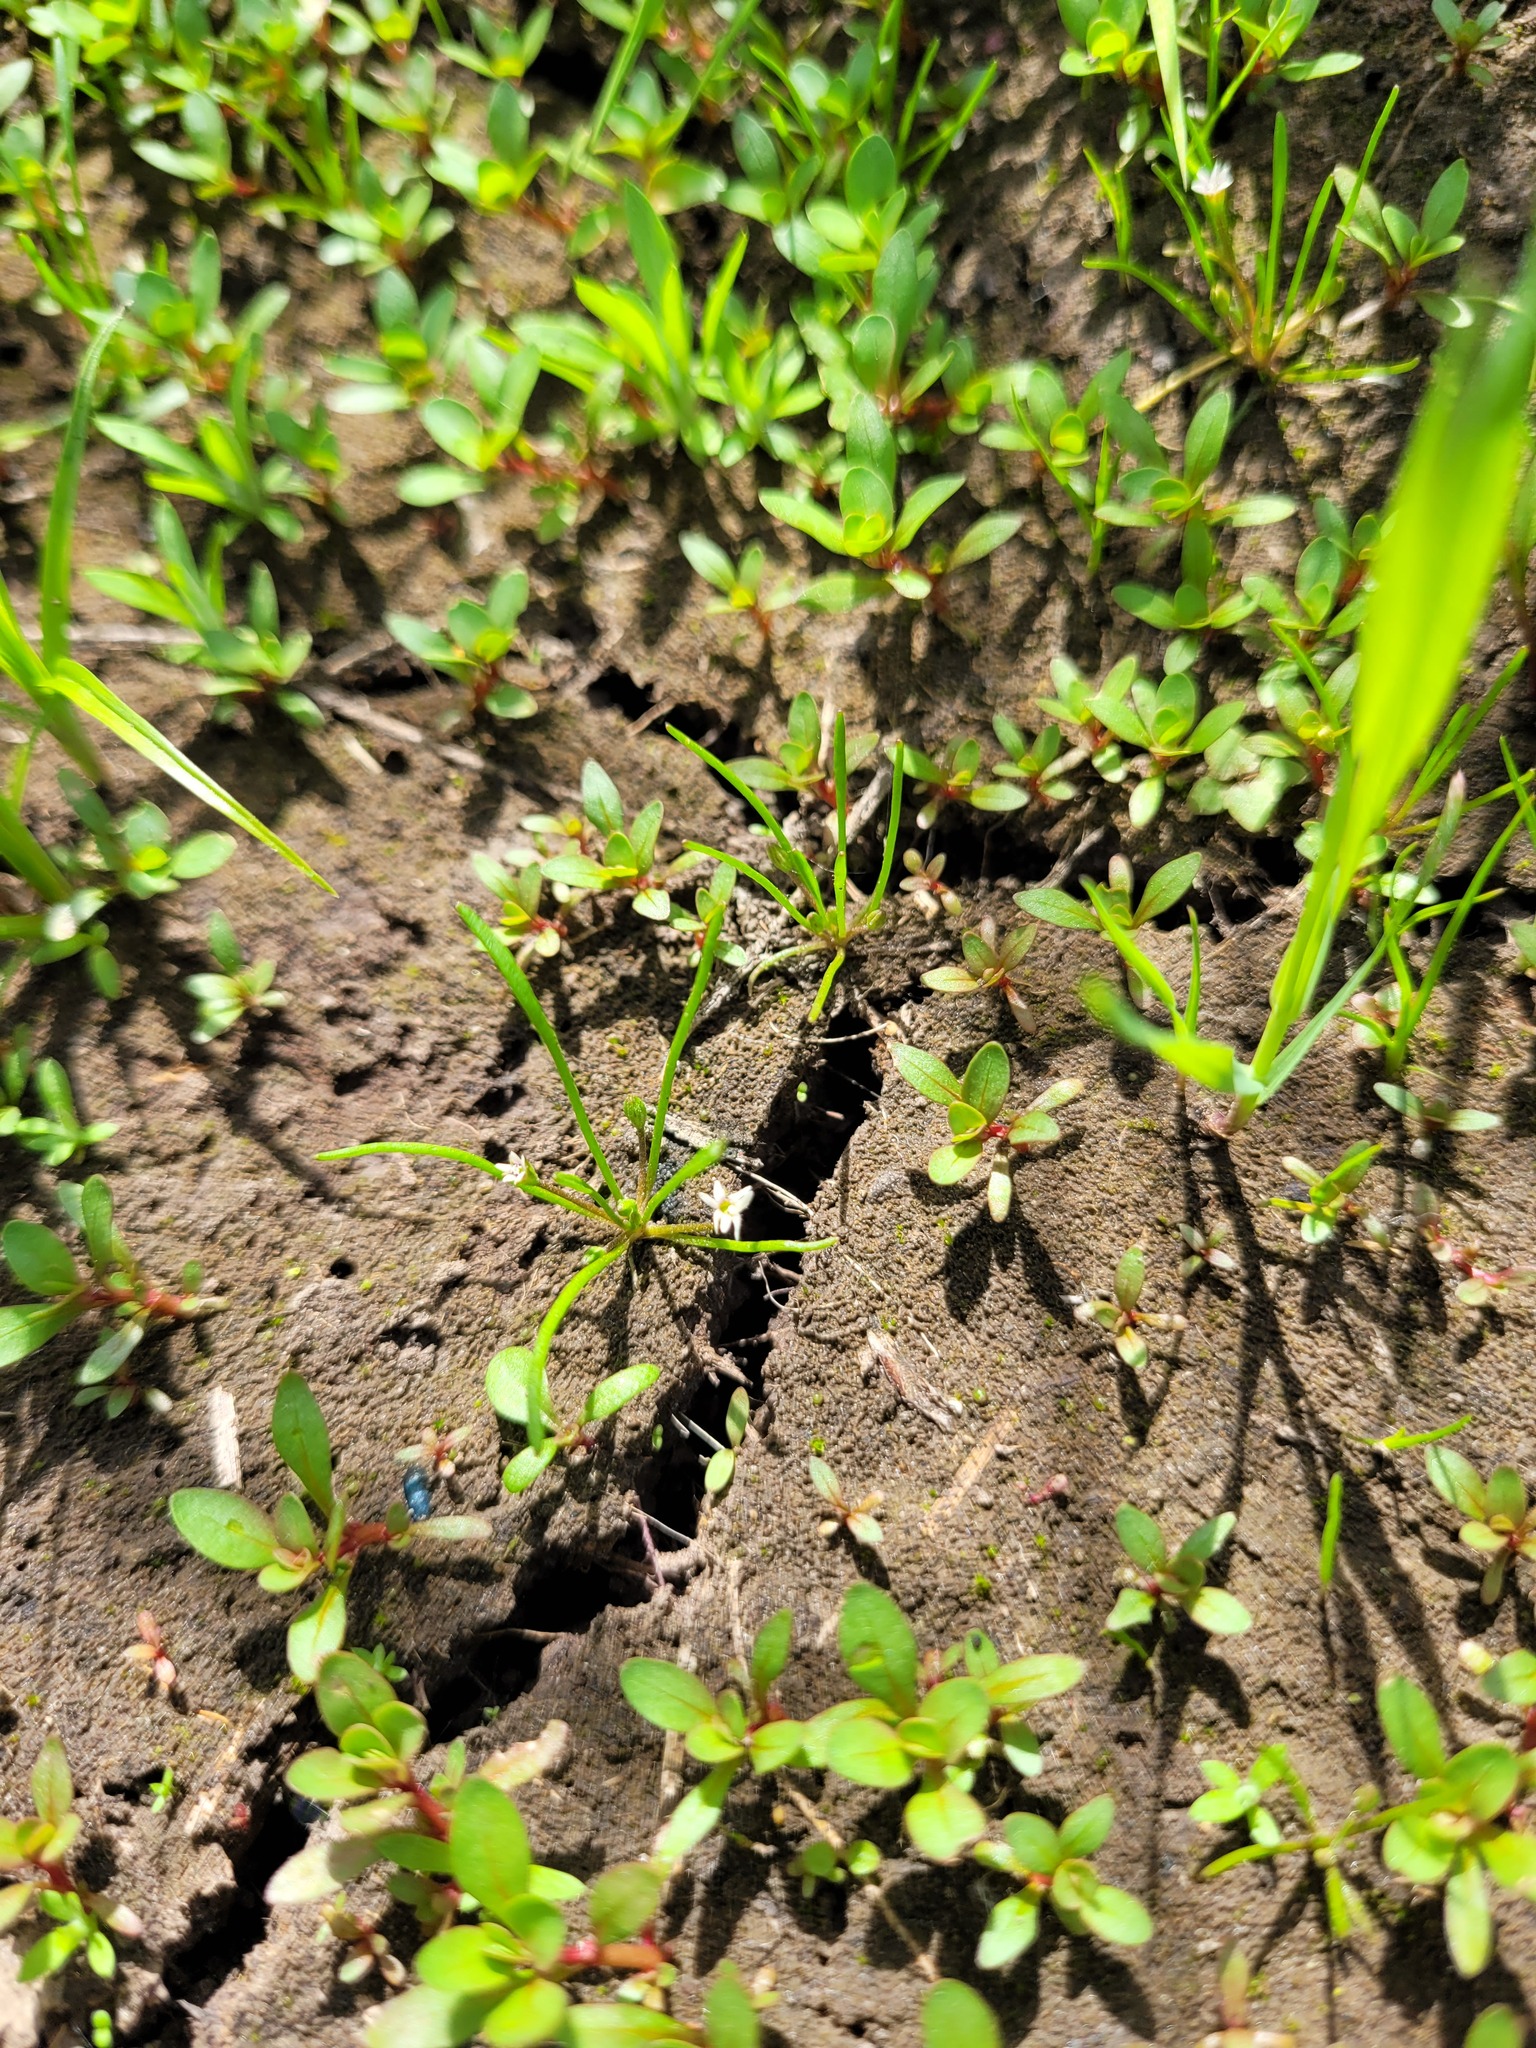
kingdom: Plantae
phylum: Tracheophyta
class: Magnoliopsida
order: Lamiales
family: Scrophulariaceae
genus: Limosella
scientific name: Limosella aquatica
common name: Mudwort
